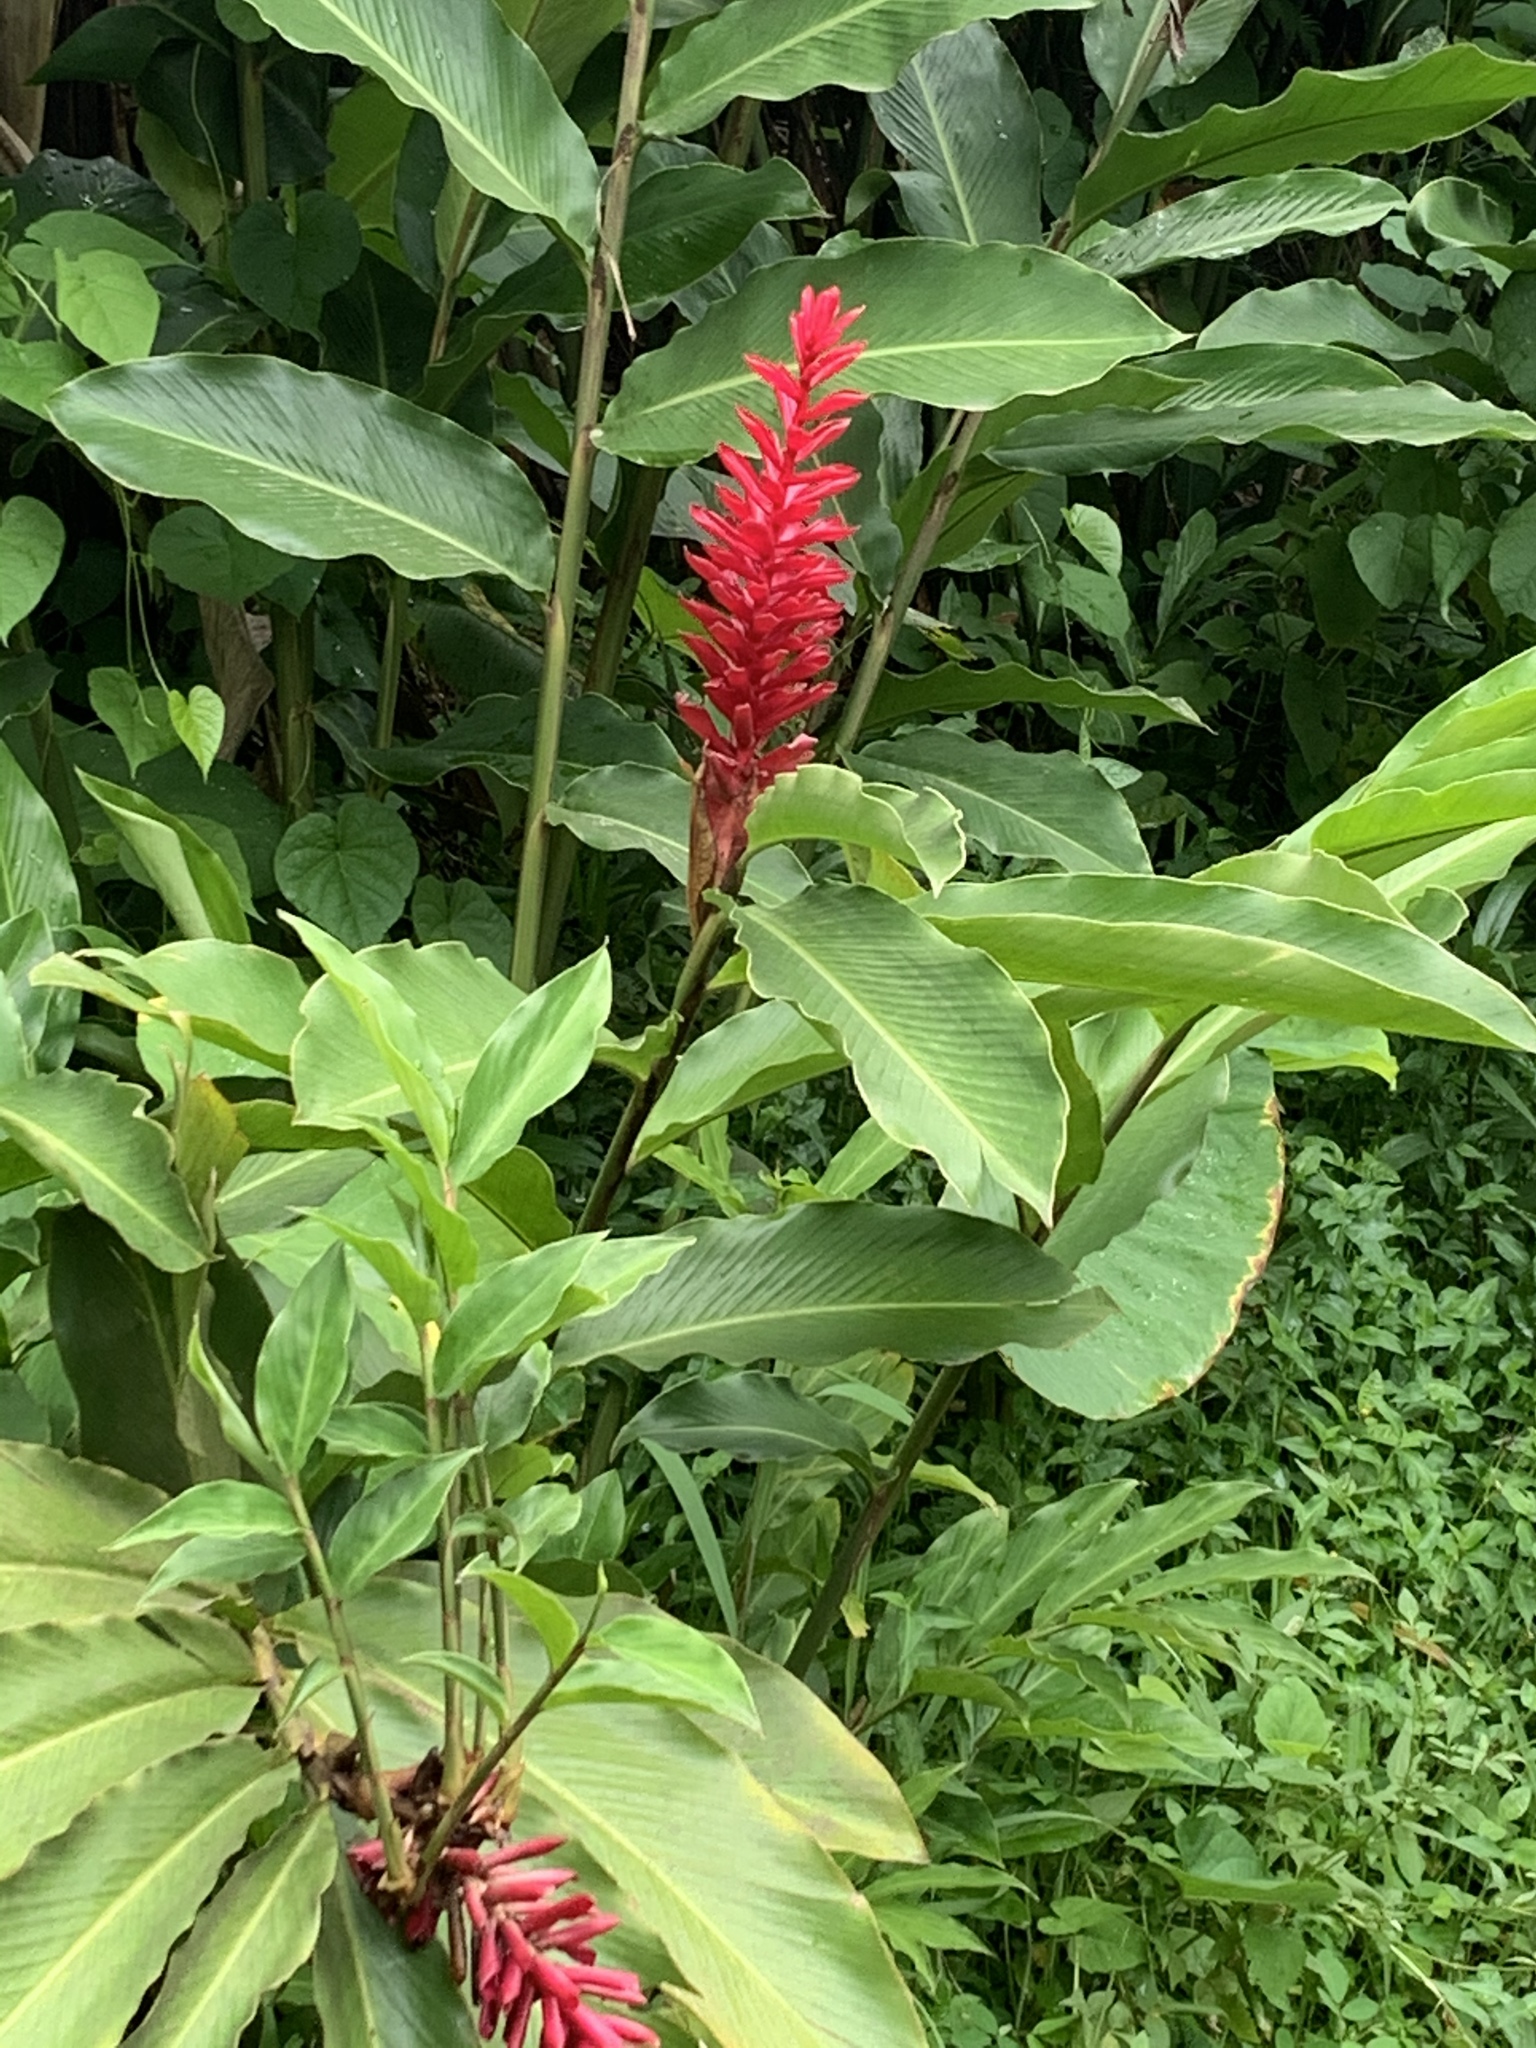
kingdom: Plantae
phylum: Tracheophyta
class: Liliopsida
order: Zingiberales
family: Zingiberaceae
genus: Alpinia
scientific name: Alpinia purpurata
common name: Red ginger
